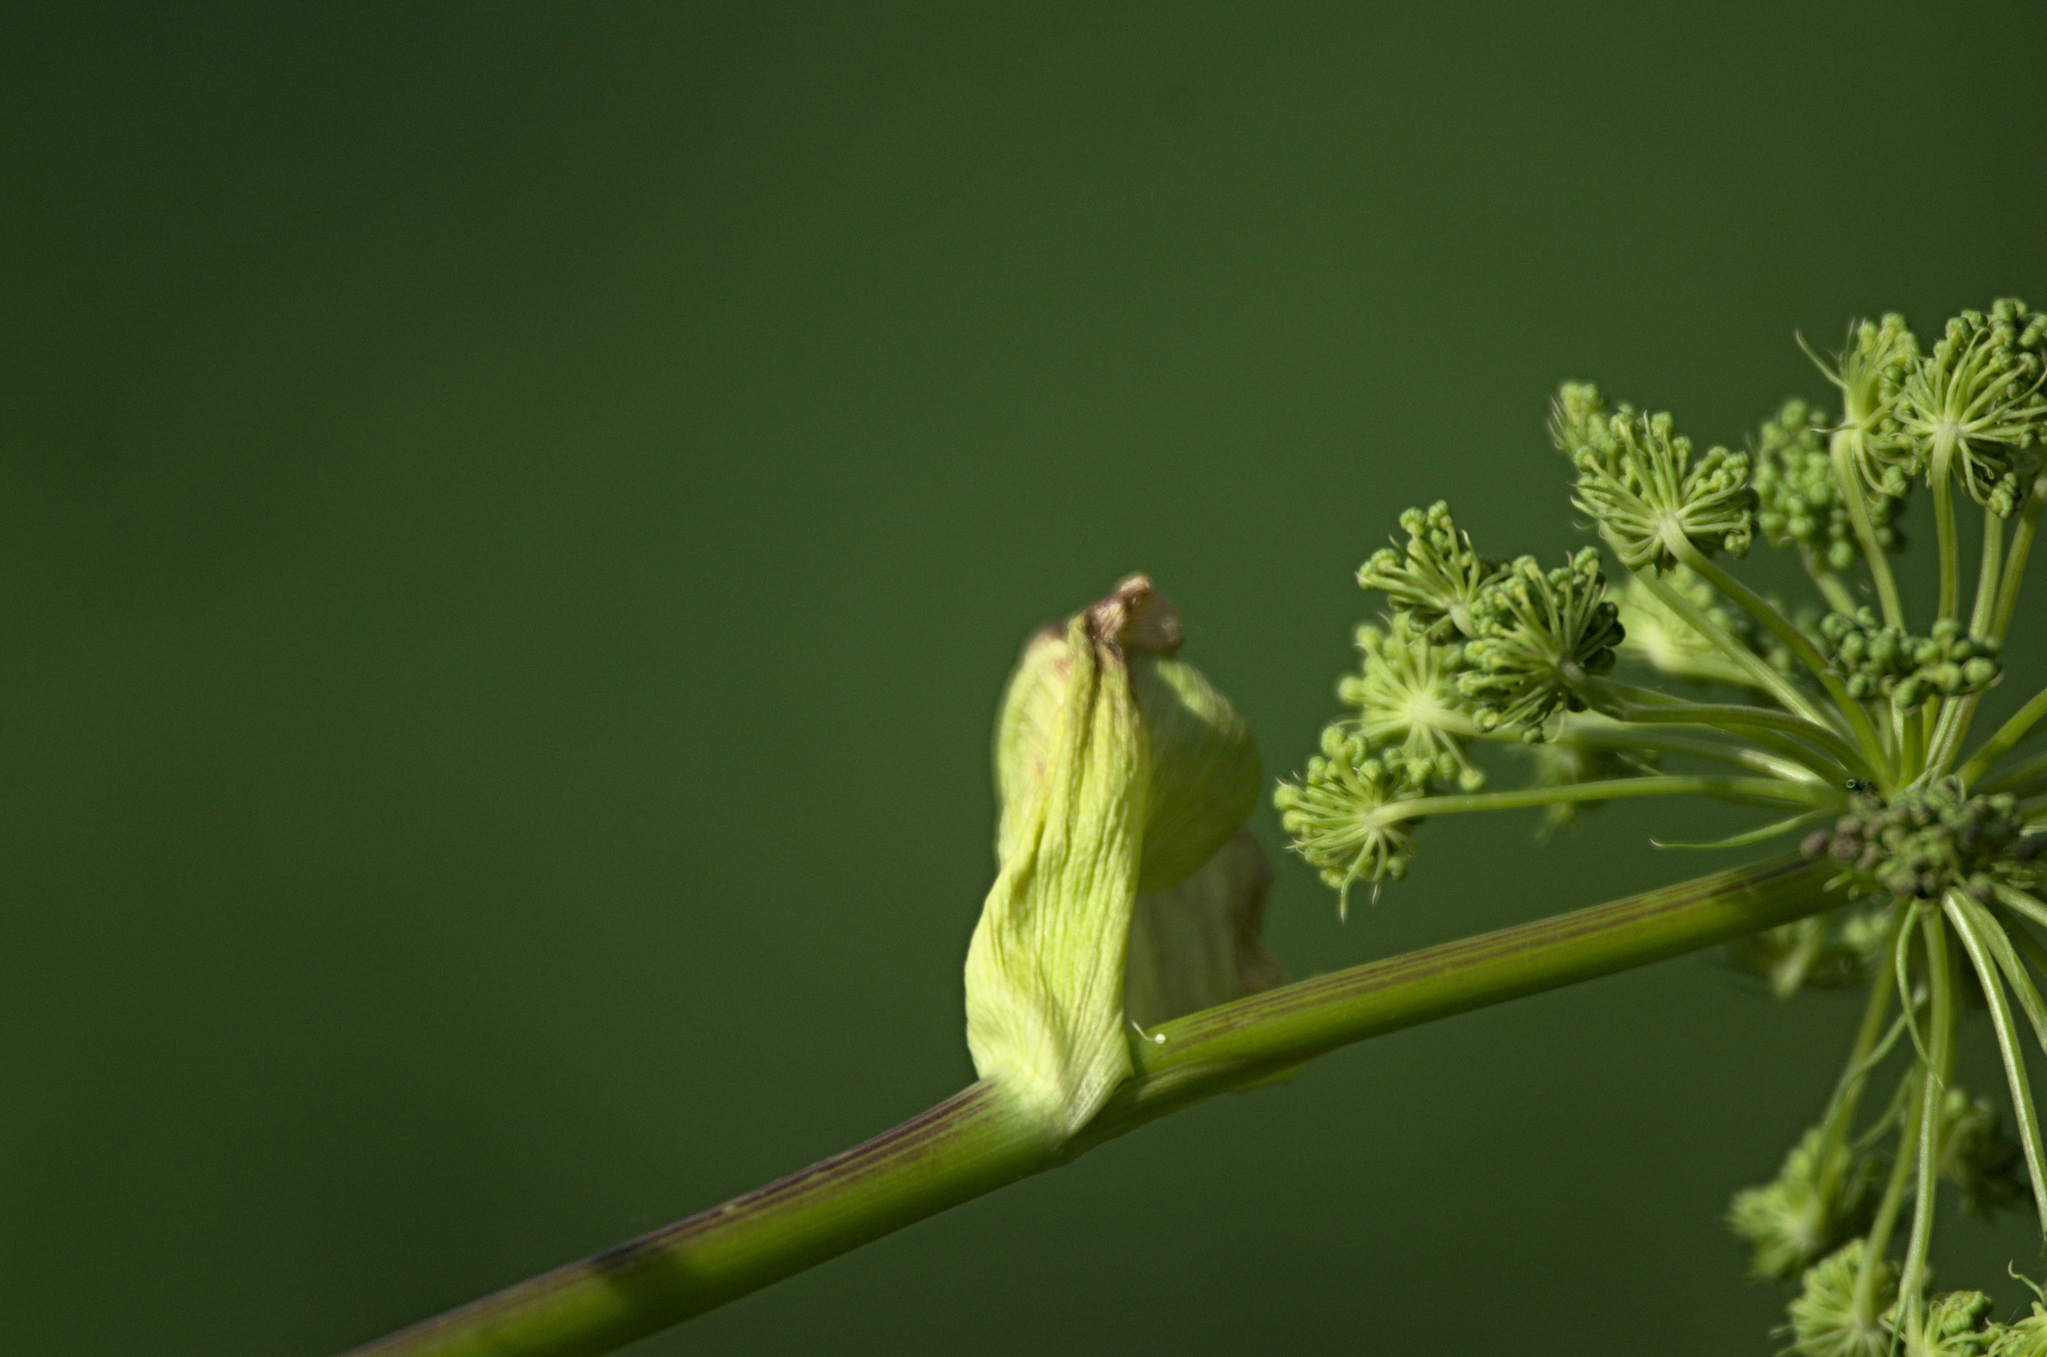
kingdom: Plantae
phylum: Tracheophyta
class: Magnoliopsida
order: Apiales
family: Apiaceae
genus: Angelica
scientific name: Angelica decurrens
